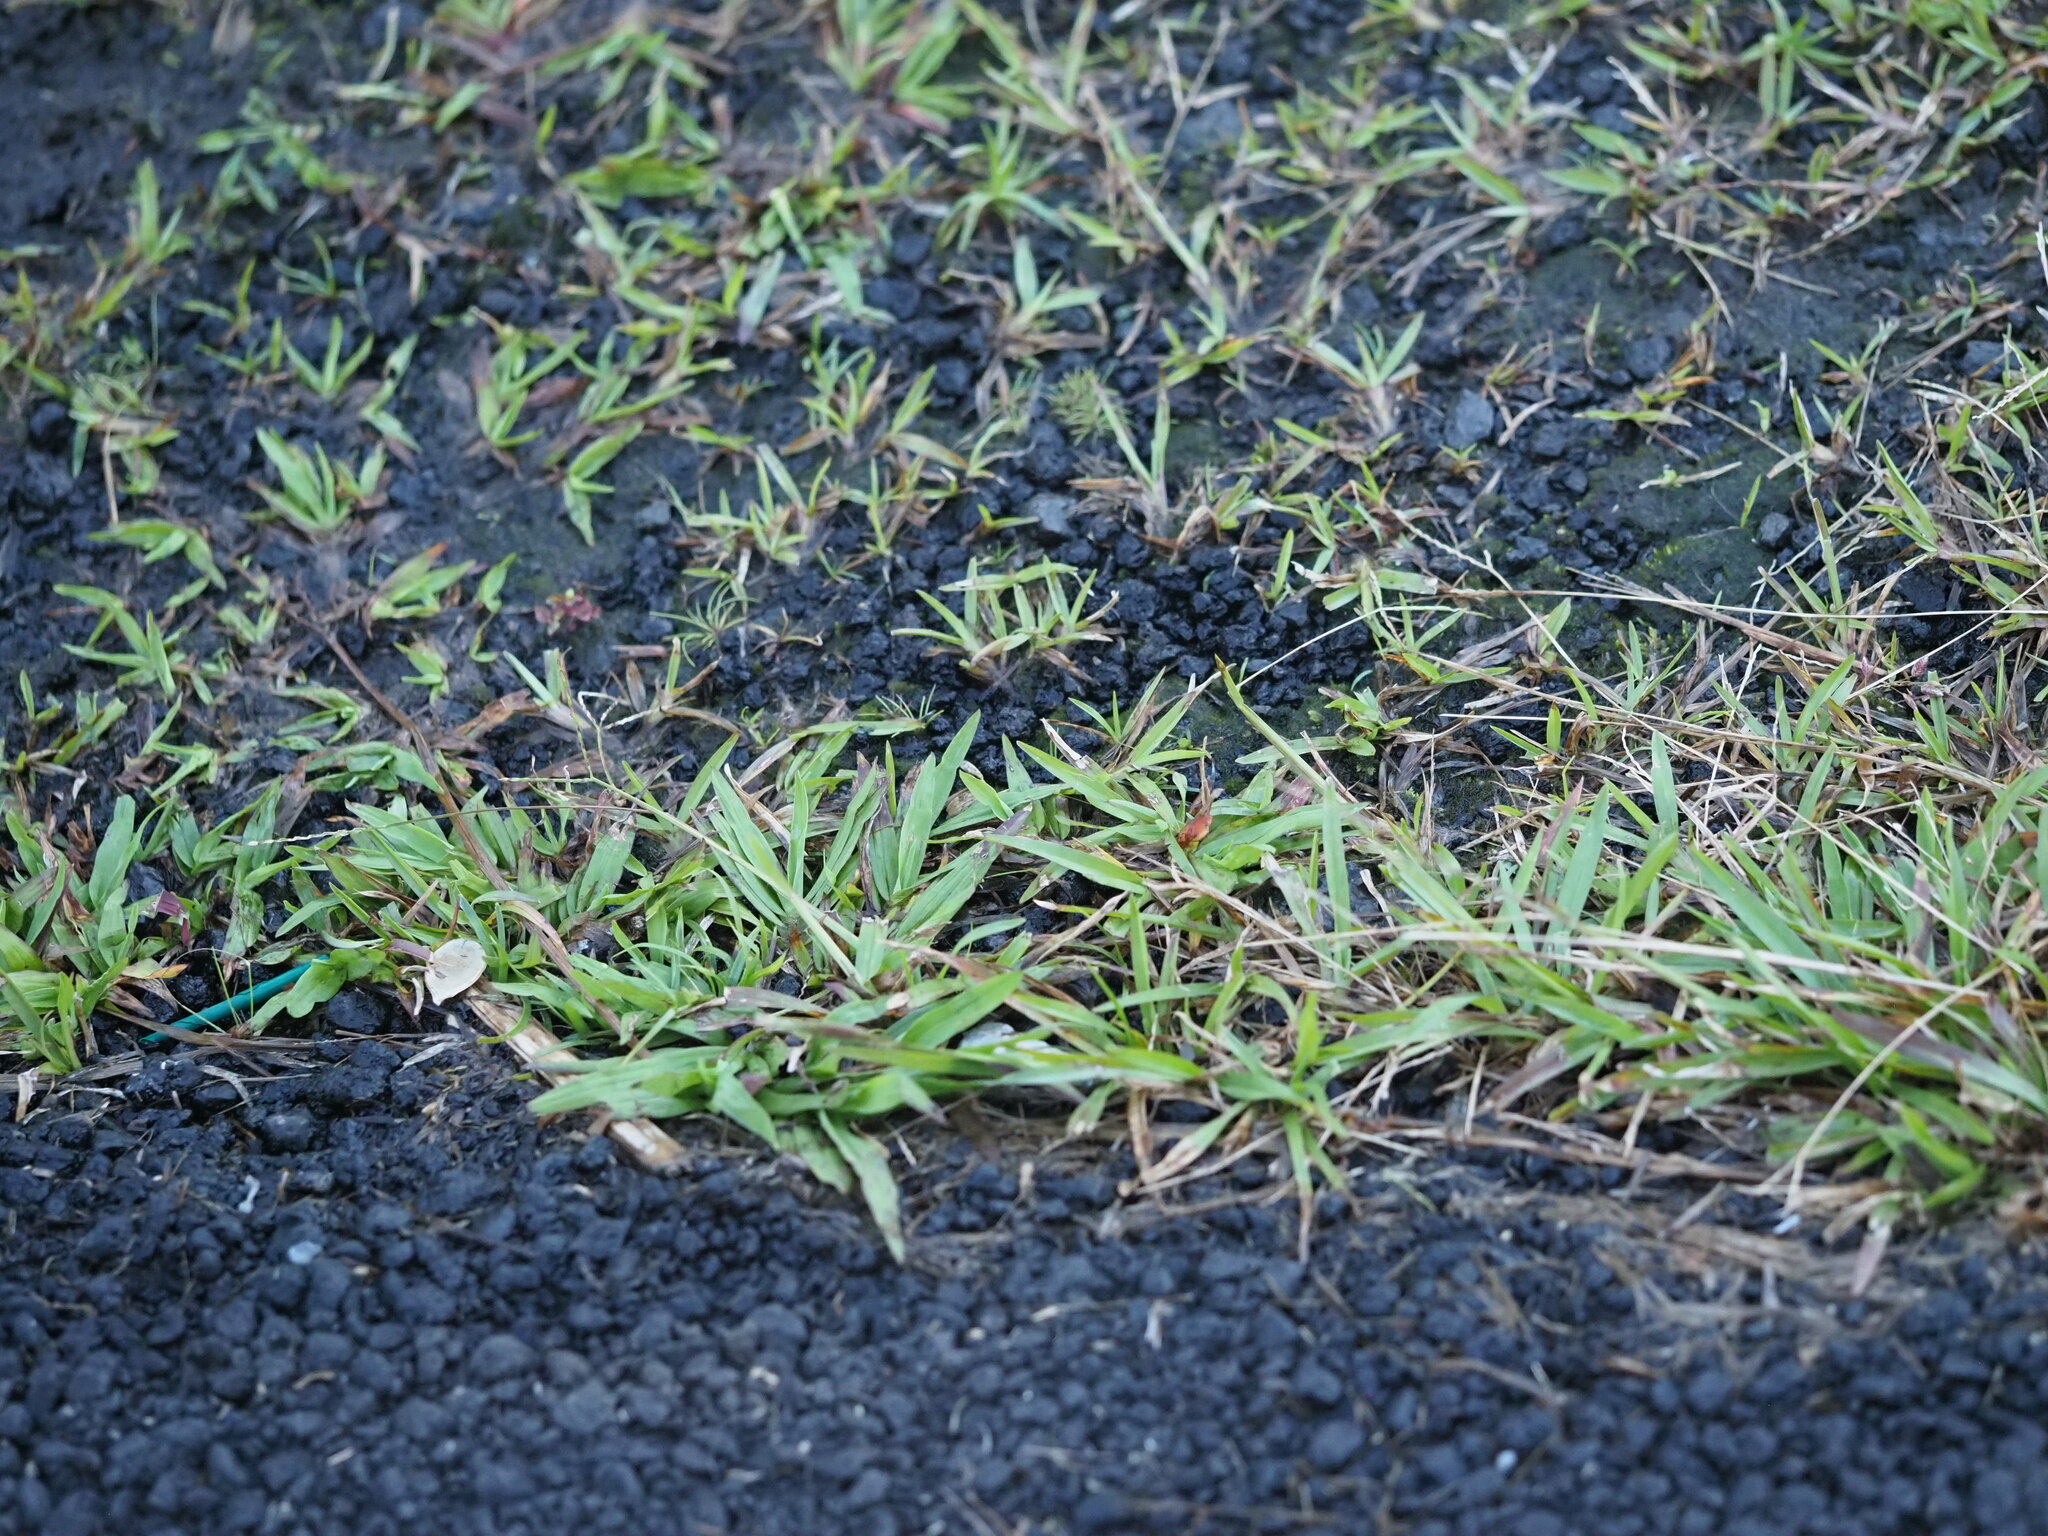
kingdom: Plantae
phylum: Tracheophyta
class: Liliopsida
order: Poales
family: Poaceae
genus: Axonopus
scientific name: Axonopus compressus
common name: American carpet grass
